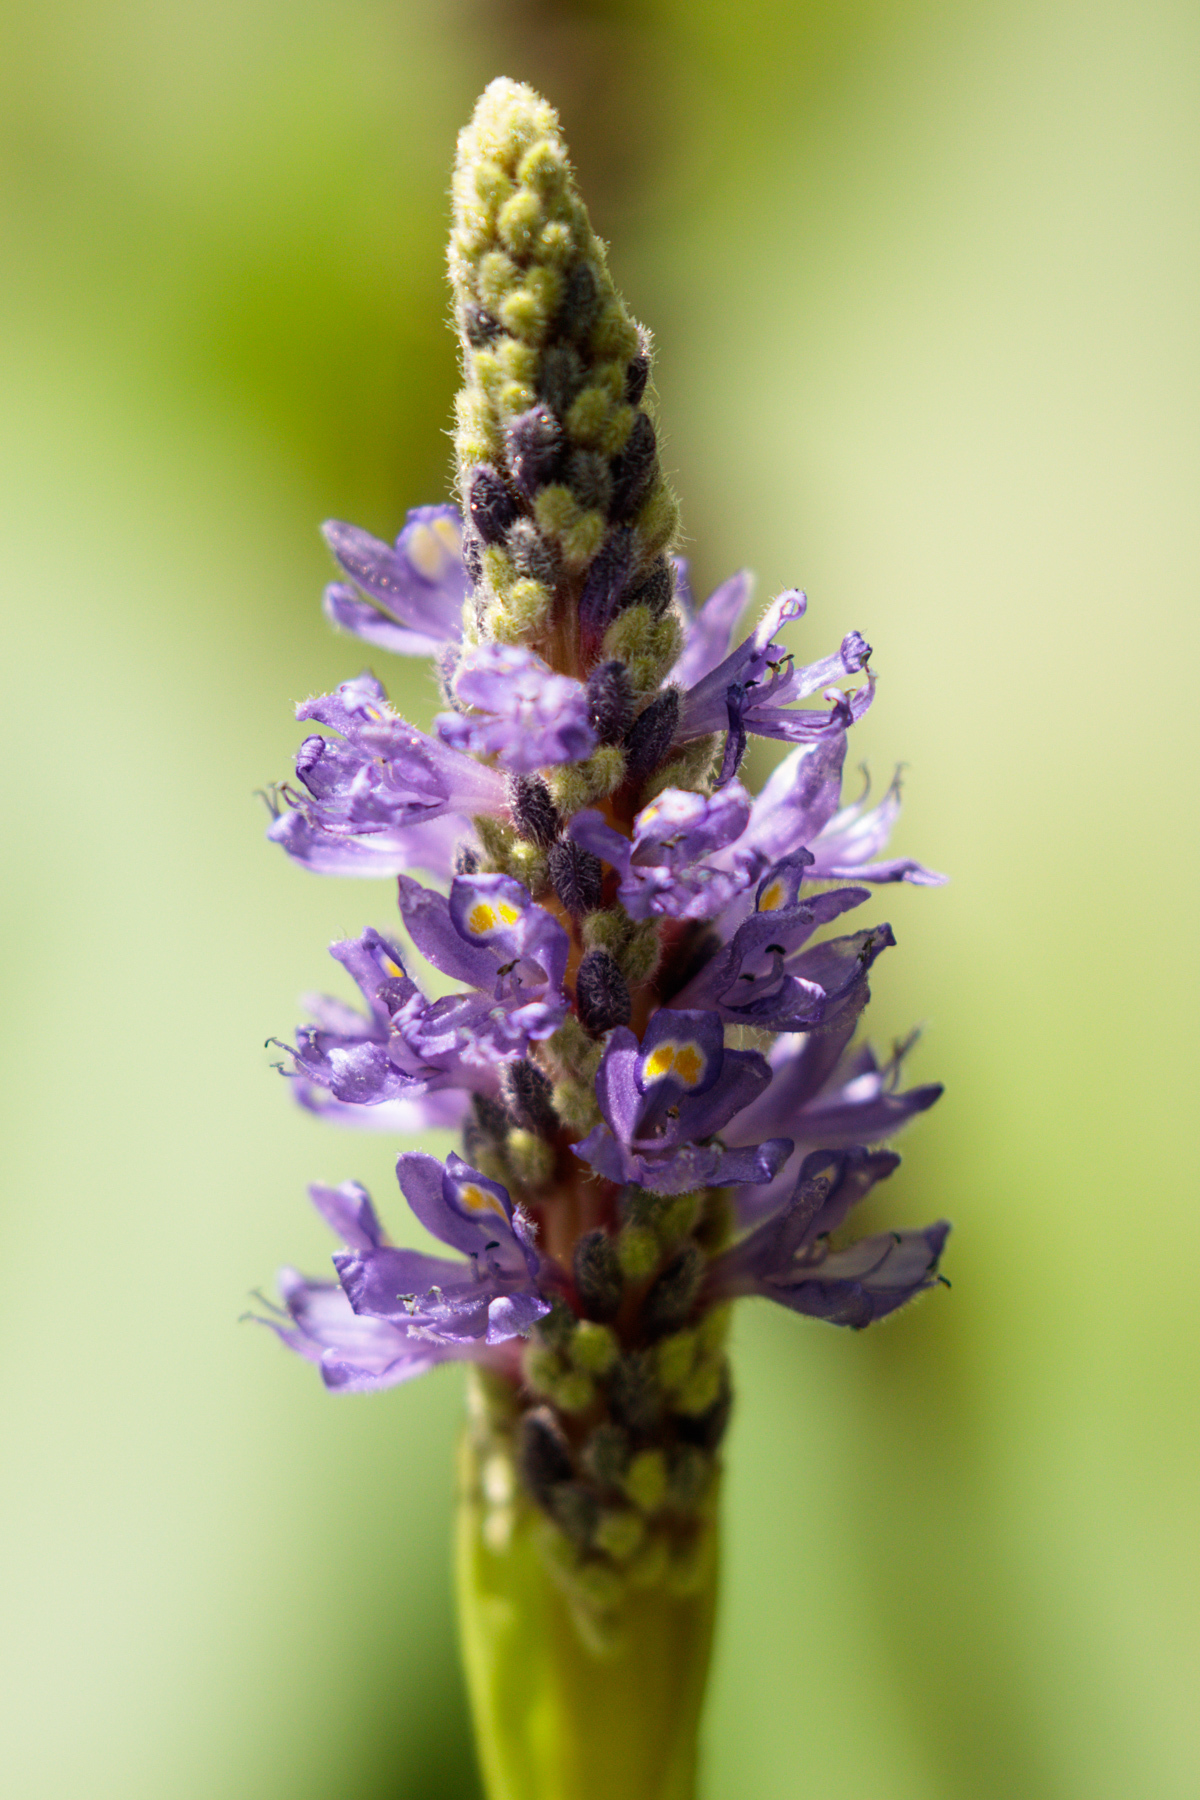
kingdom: Plantae
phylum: Tracheophyta
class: Liliopsida
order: Commelinales
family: Pontederiaceae
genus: Pontederia
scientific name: Pontederia cordata
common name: Pickerelweed
